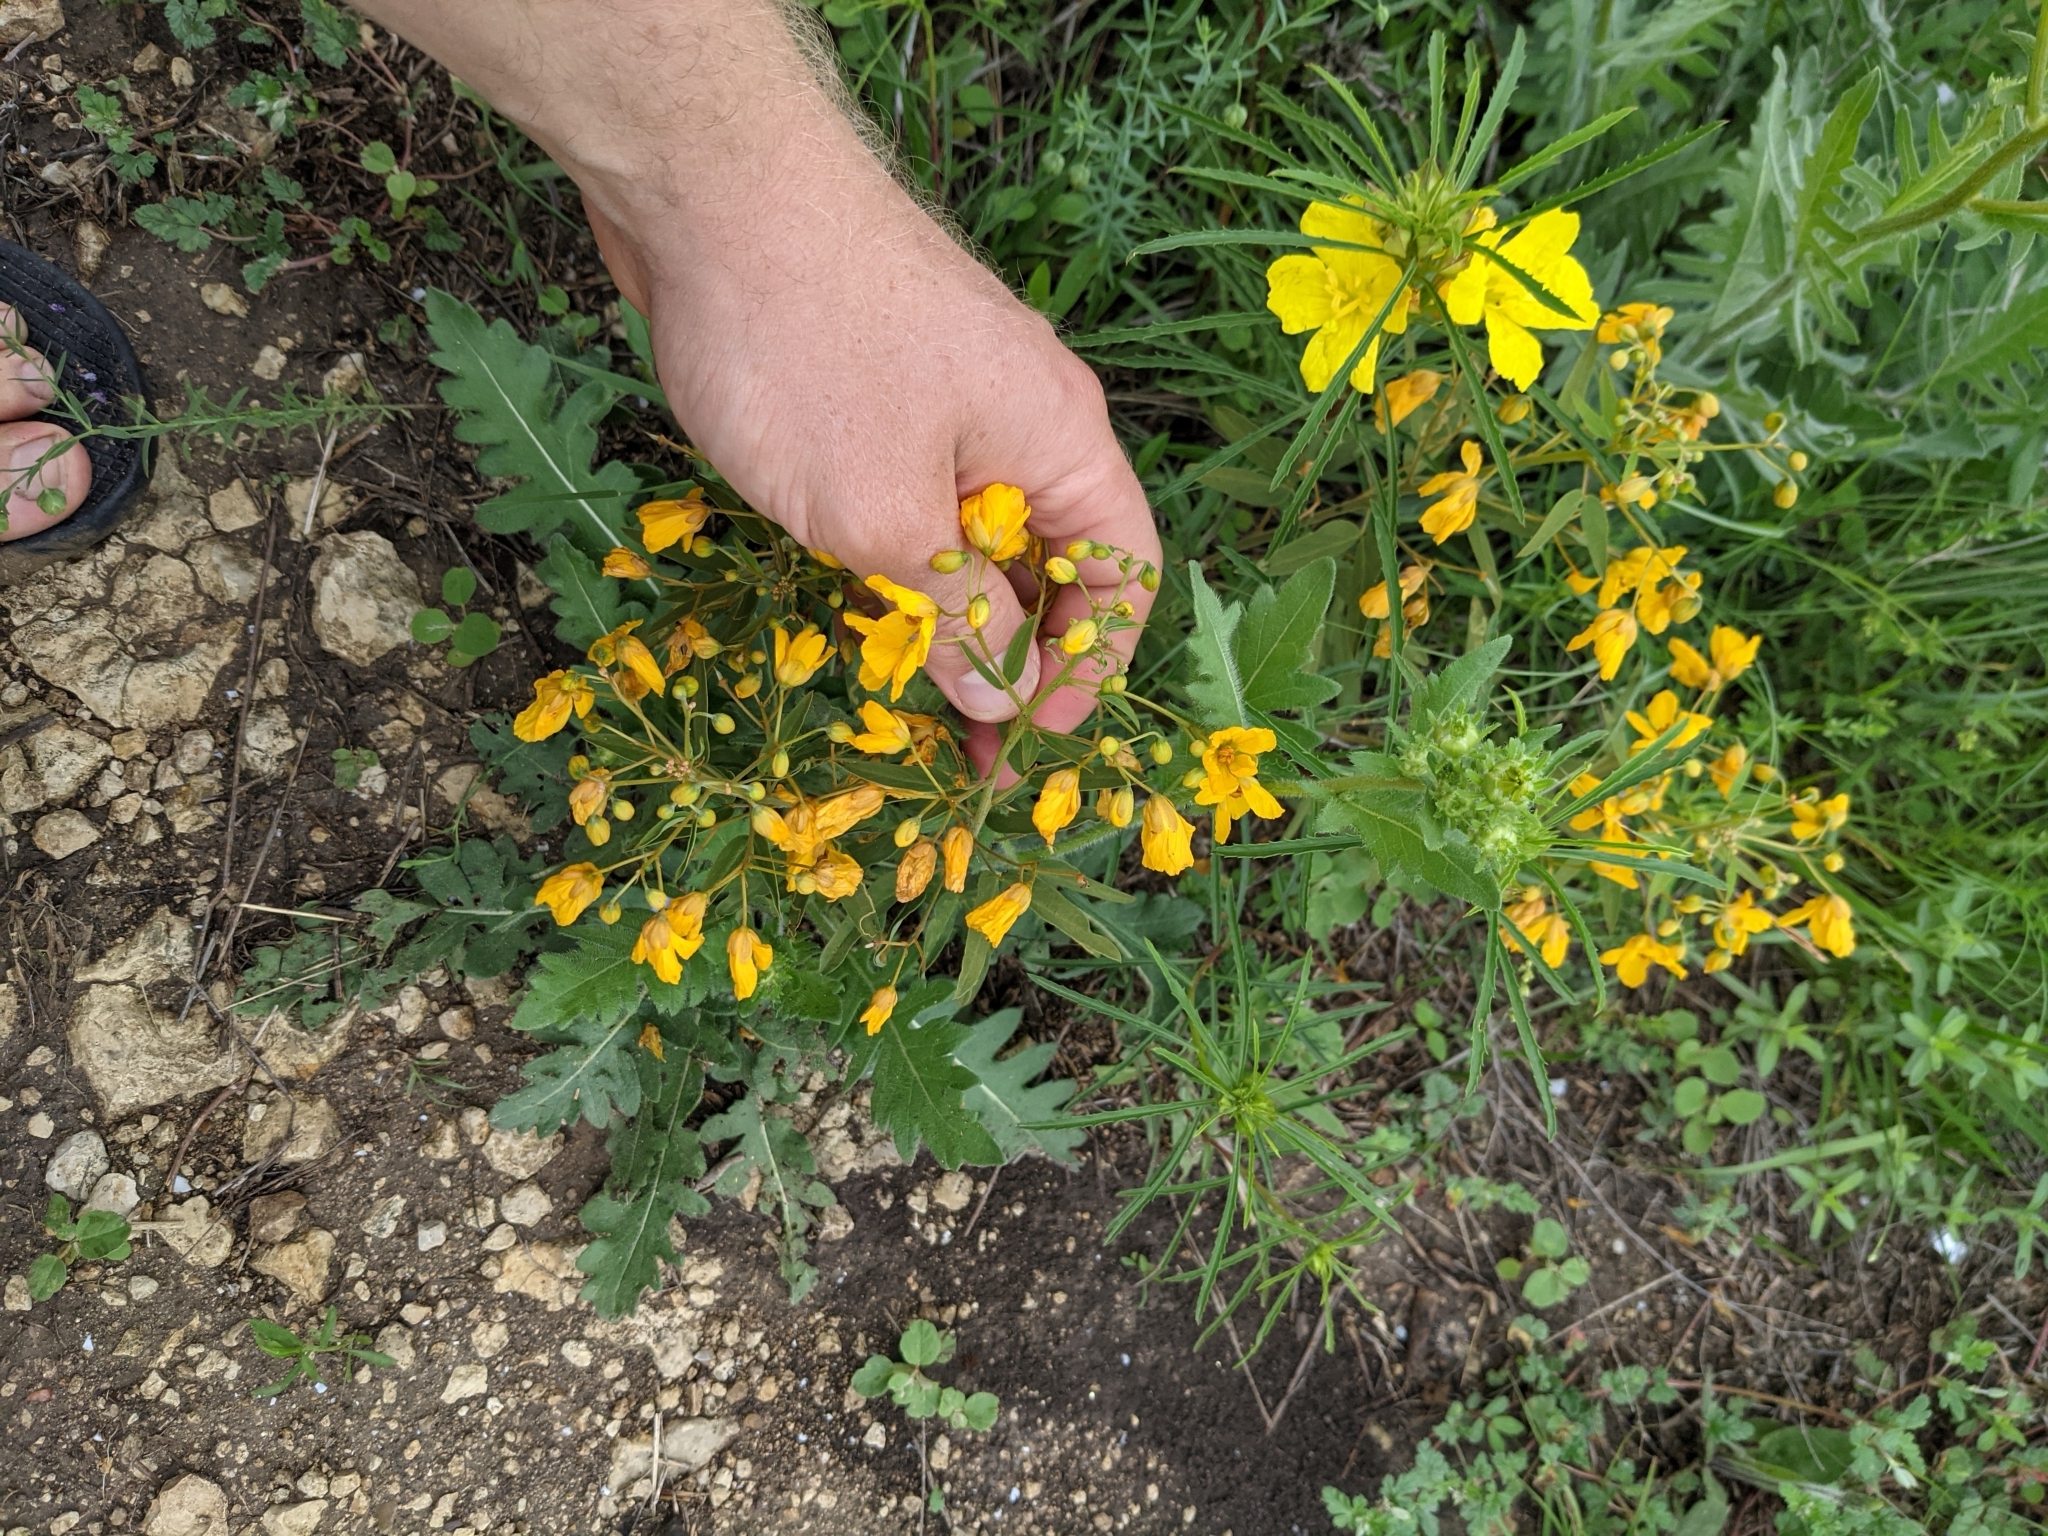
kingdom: Plantae
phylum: Tracheophyta
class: Magnoliopsida
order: Fabales
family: Fabaceae
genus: Senna
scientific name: Senna roemeriana
